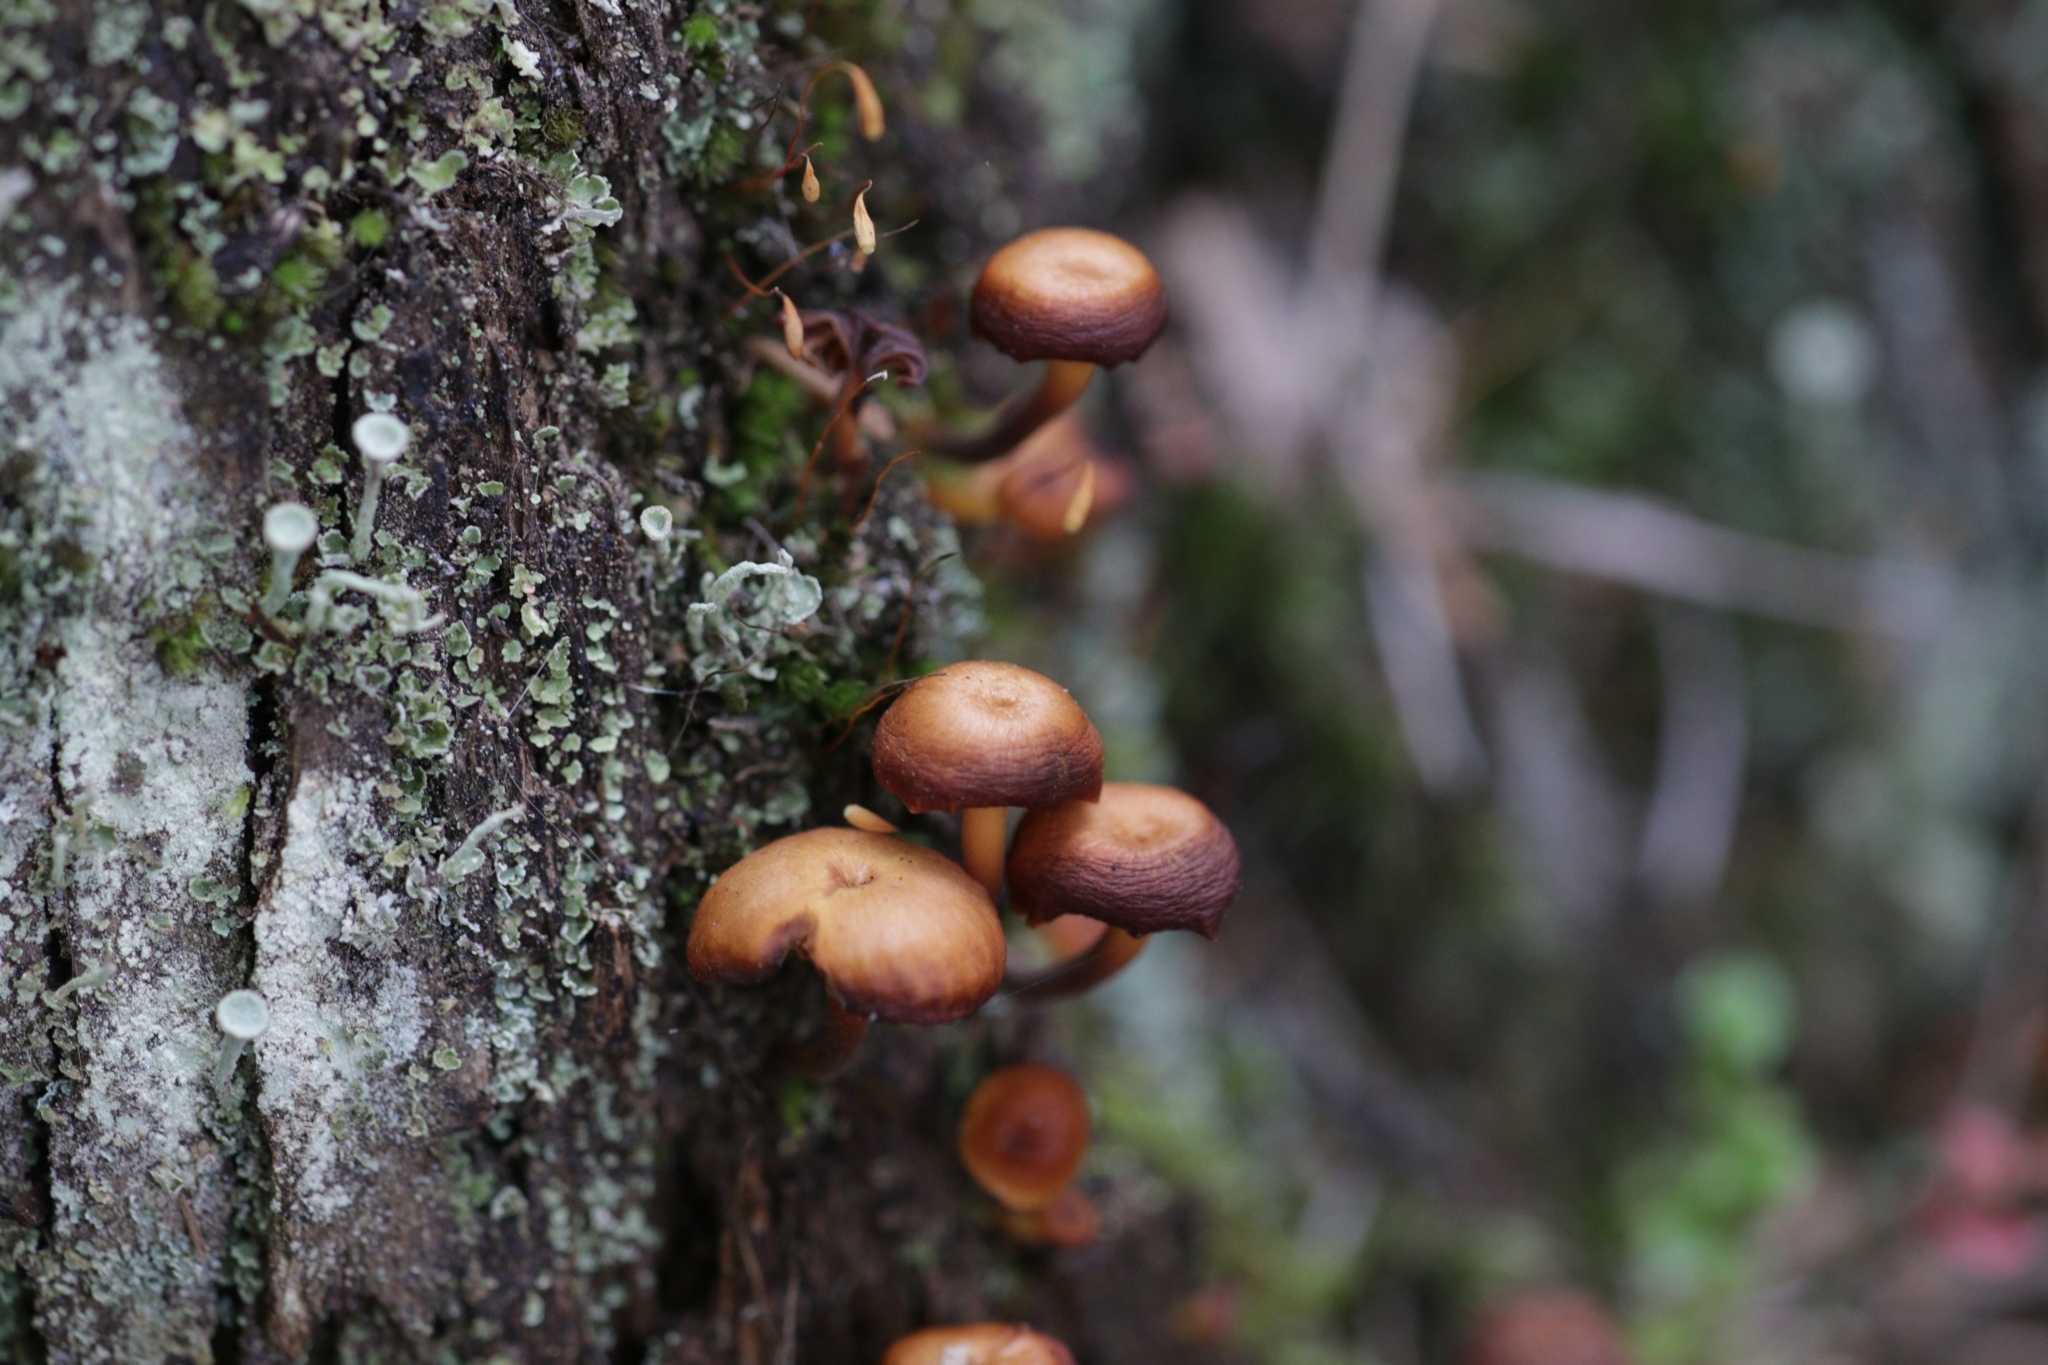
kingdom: Fungi
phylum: Basidiomycota
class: Agaricomycetes
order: Agaricales
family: Mycenaceae
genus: Xeromphalina
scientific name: Xeromphalina campanella
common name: Pinewood gingertail
